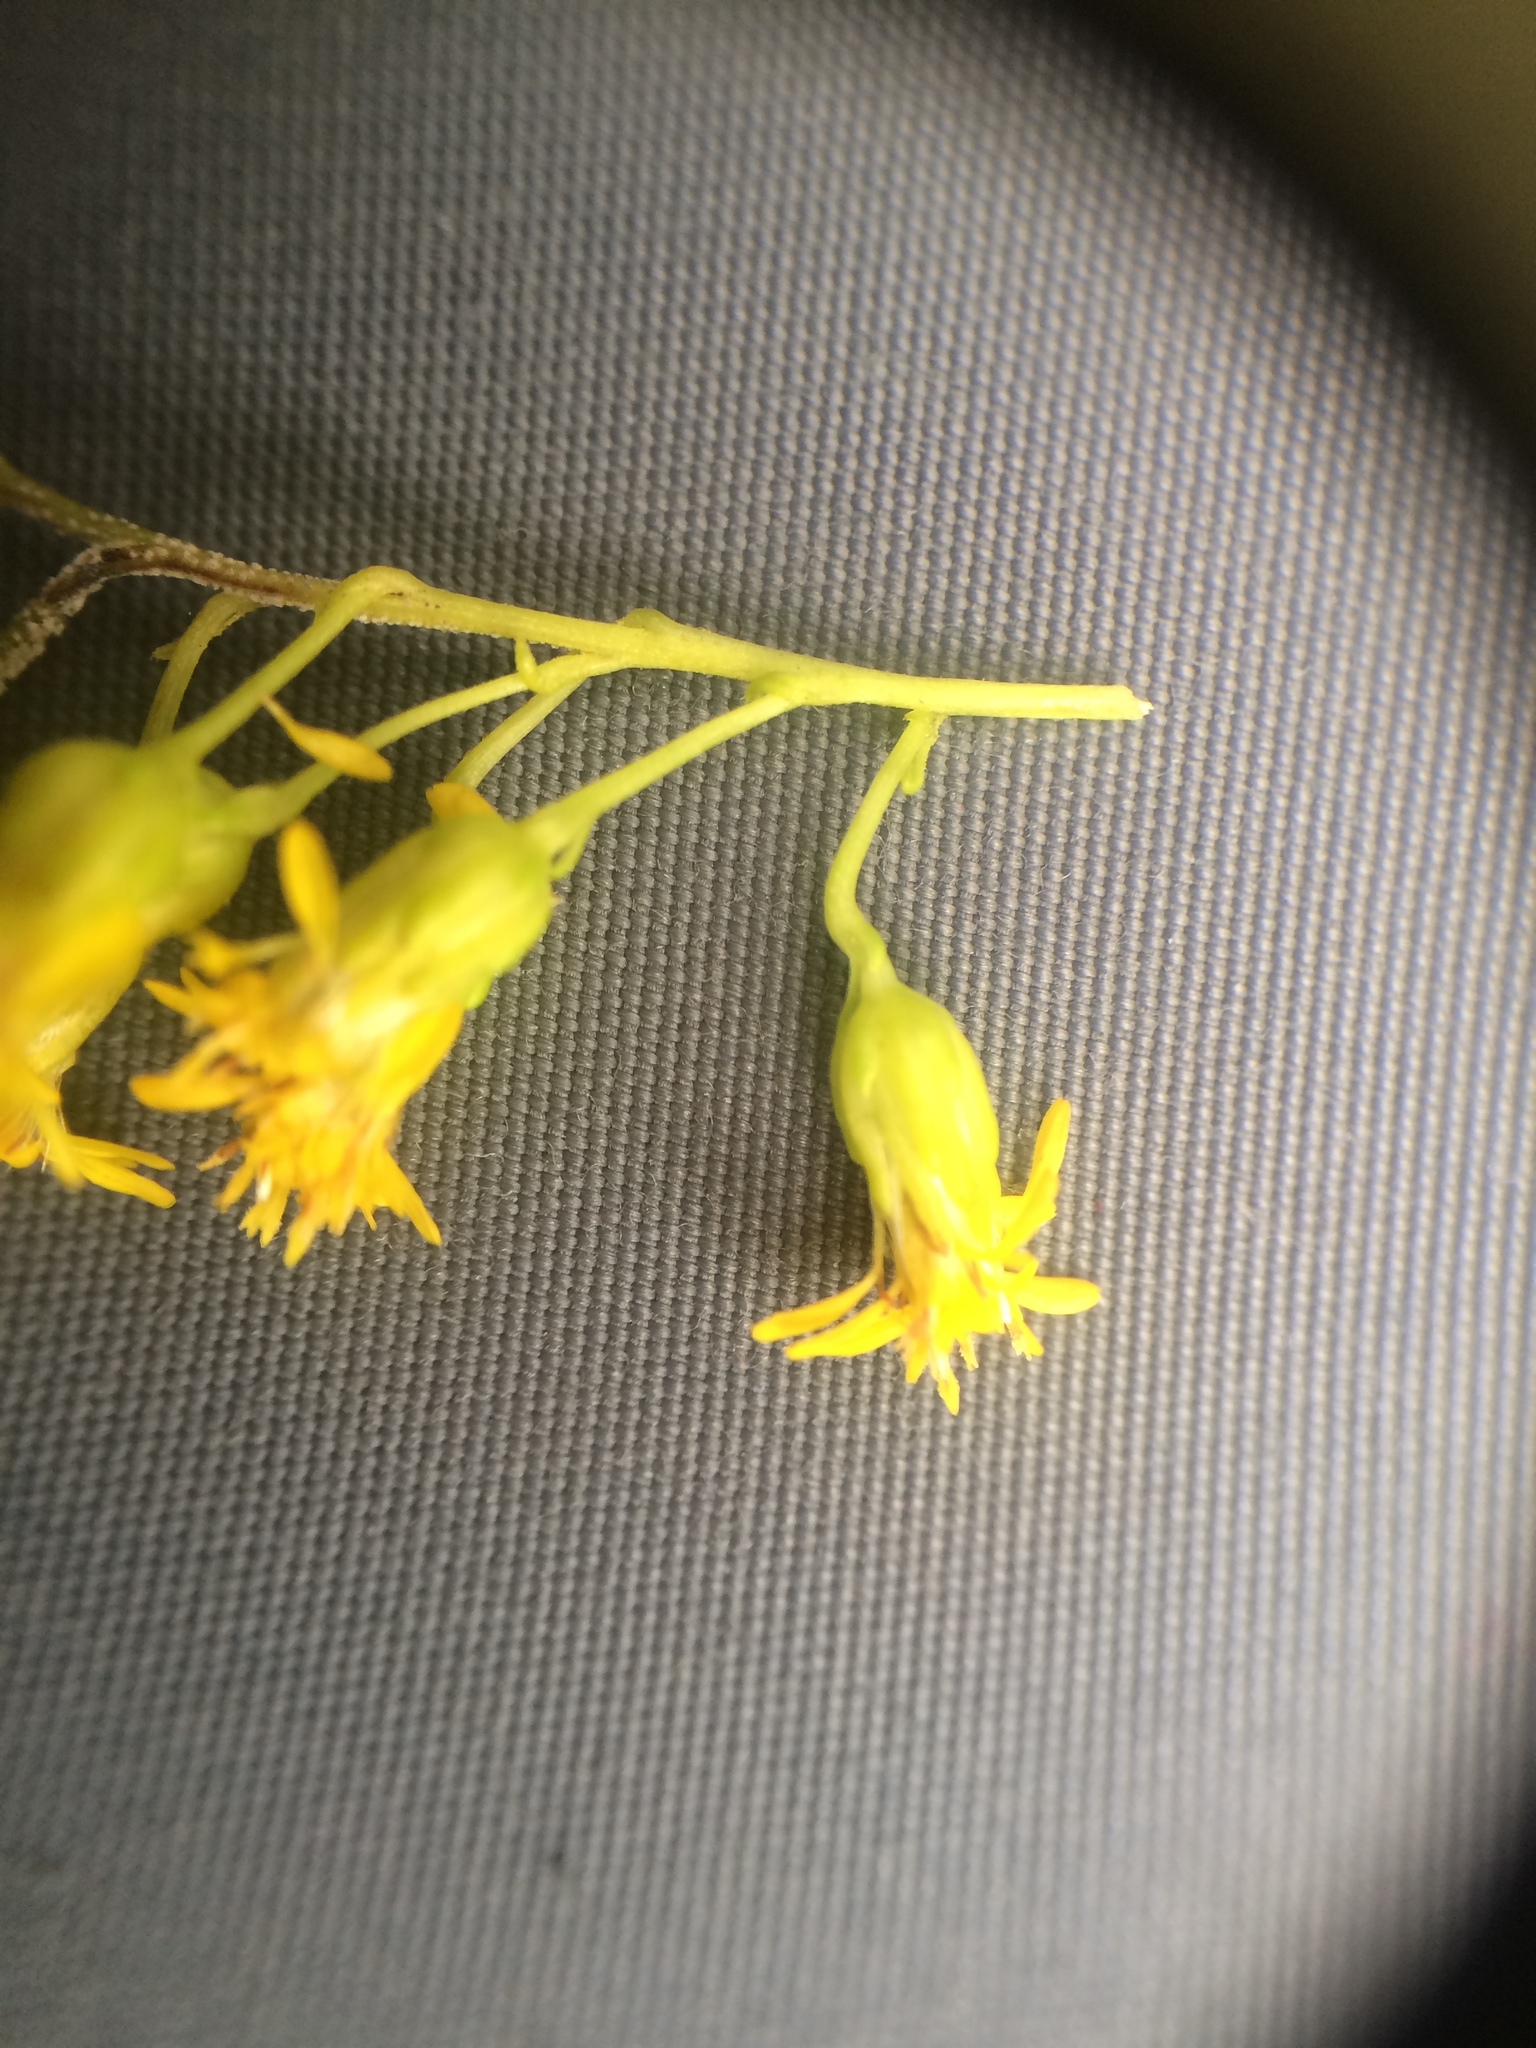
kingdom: Plantae
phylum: Tracheophyta
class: Magnoliopsida
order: Asterales
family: Asteraceae
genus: Solidago
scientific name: Solidago juncea
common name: Early goldenrod
